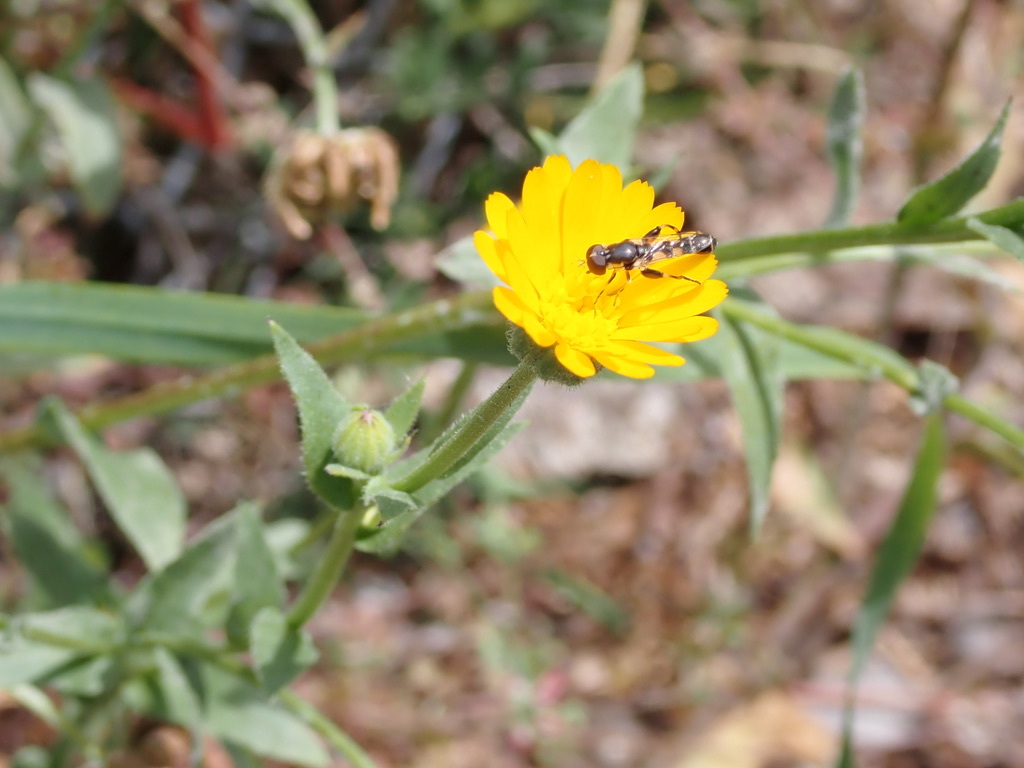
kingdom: Animalia
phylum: Arthropoda
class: Insecta
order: Diptera
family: Syrphidae
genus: Syritta
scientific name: Syritta pipiens
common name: Hover fly
